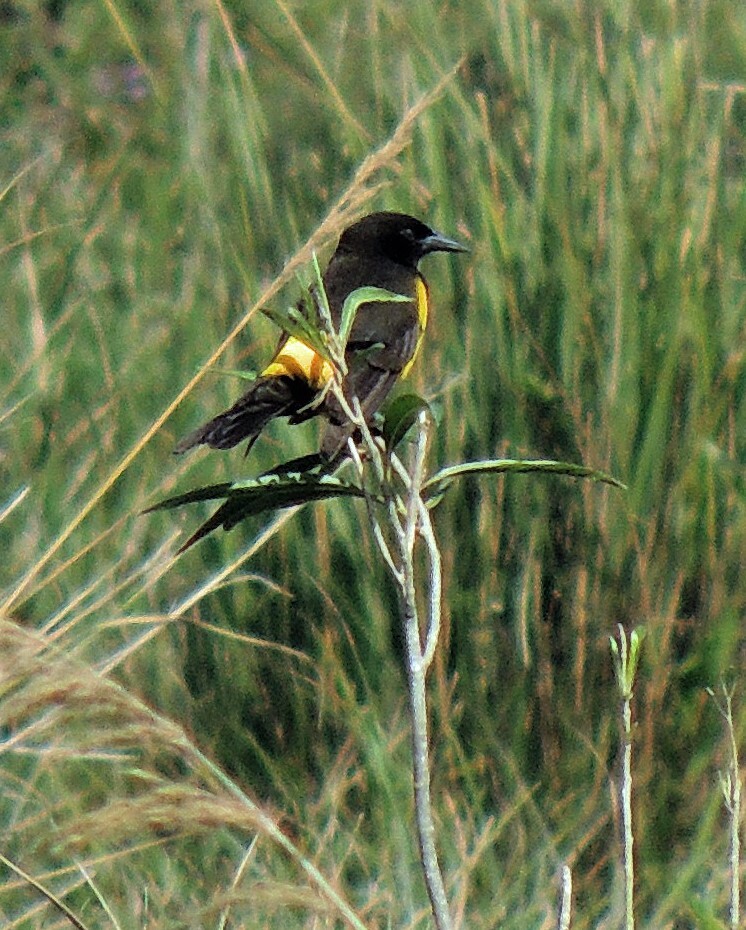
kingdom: Animalia
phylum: Chordata
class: Aves
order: Passeriformes
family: Icteridae
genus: Pseudoleistes
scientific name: Pseudoleistes guirahuro
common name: Yellow-rumped marshbird
